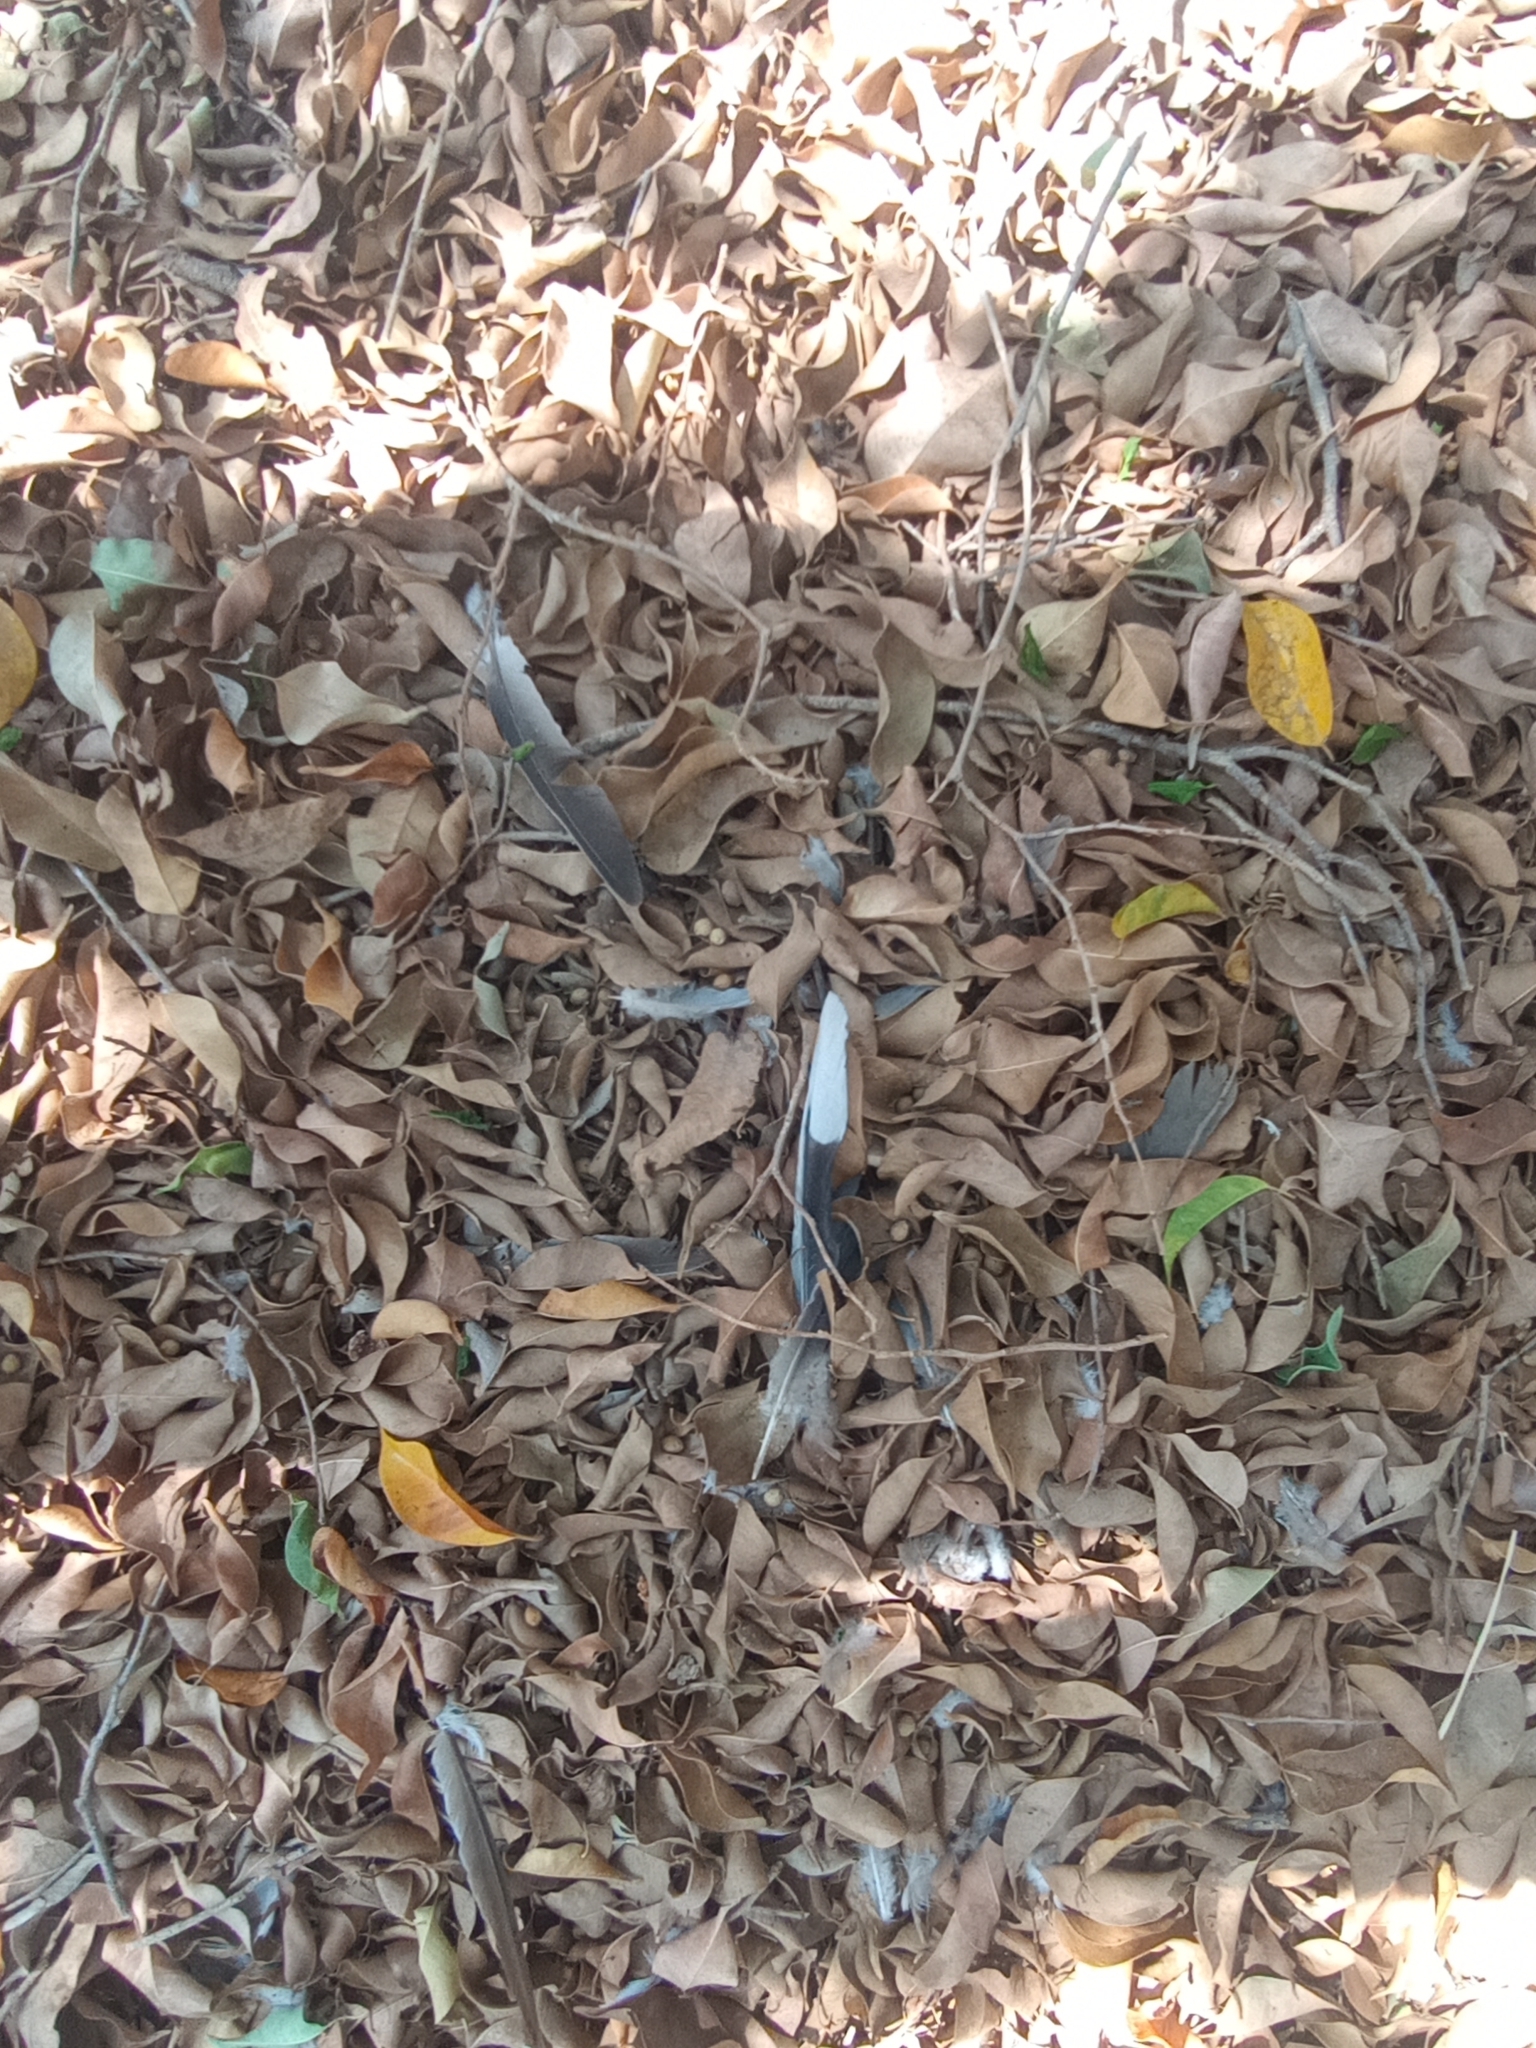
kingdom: Animalia
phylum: Chordata
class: Aves
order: Columbiformes
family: Columbidae
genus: Streptopelia
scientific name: Streptopelia decaocto
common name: Eurasian collared dove
